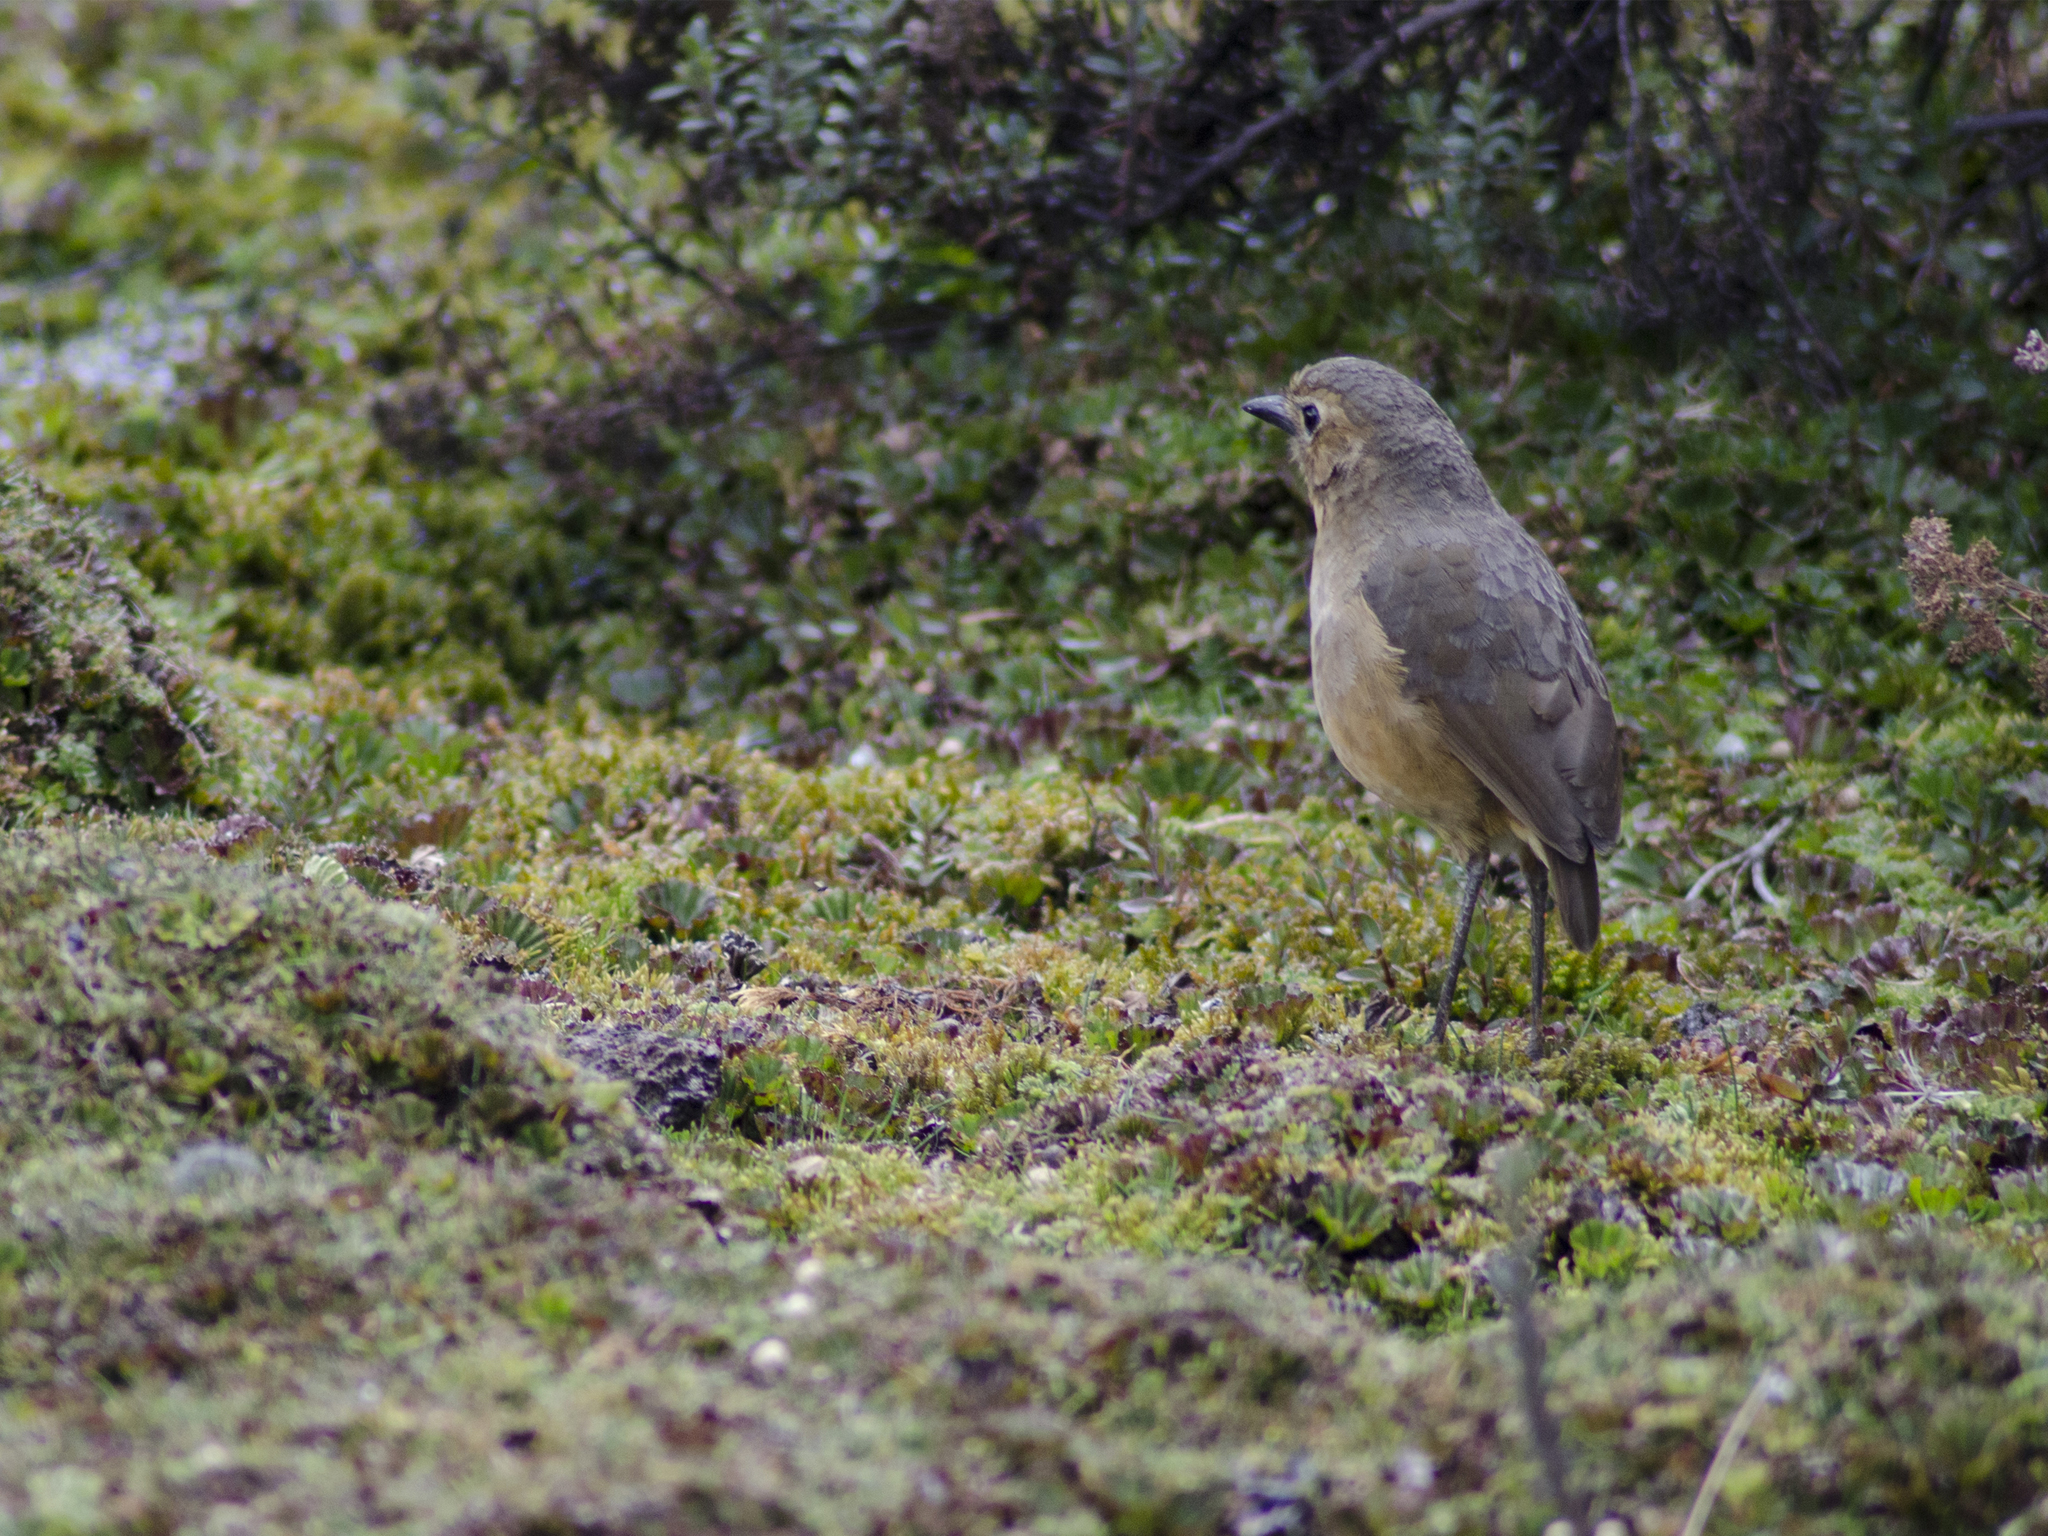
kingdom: Animalia
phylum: Chordata
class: Aves
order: Passeriformes
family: Grallariidae
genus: Grallaria
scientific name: Grallaria quitensis
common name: Tawny antpitta
